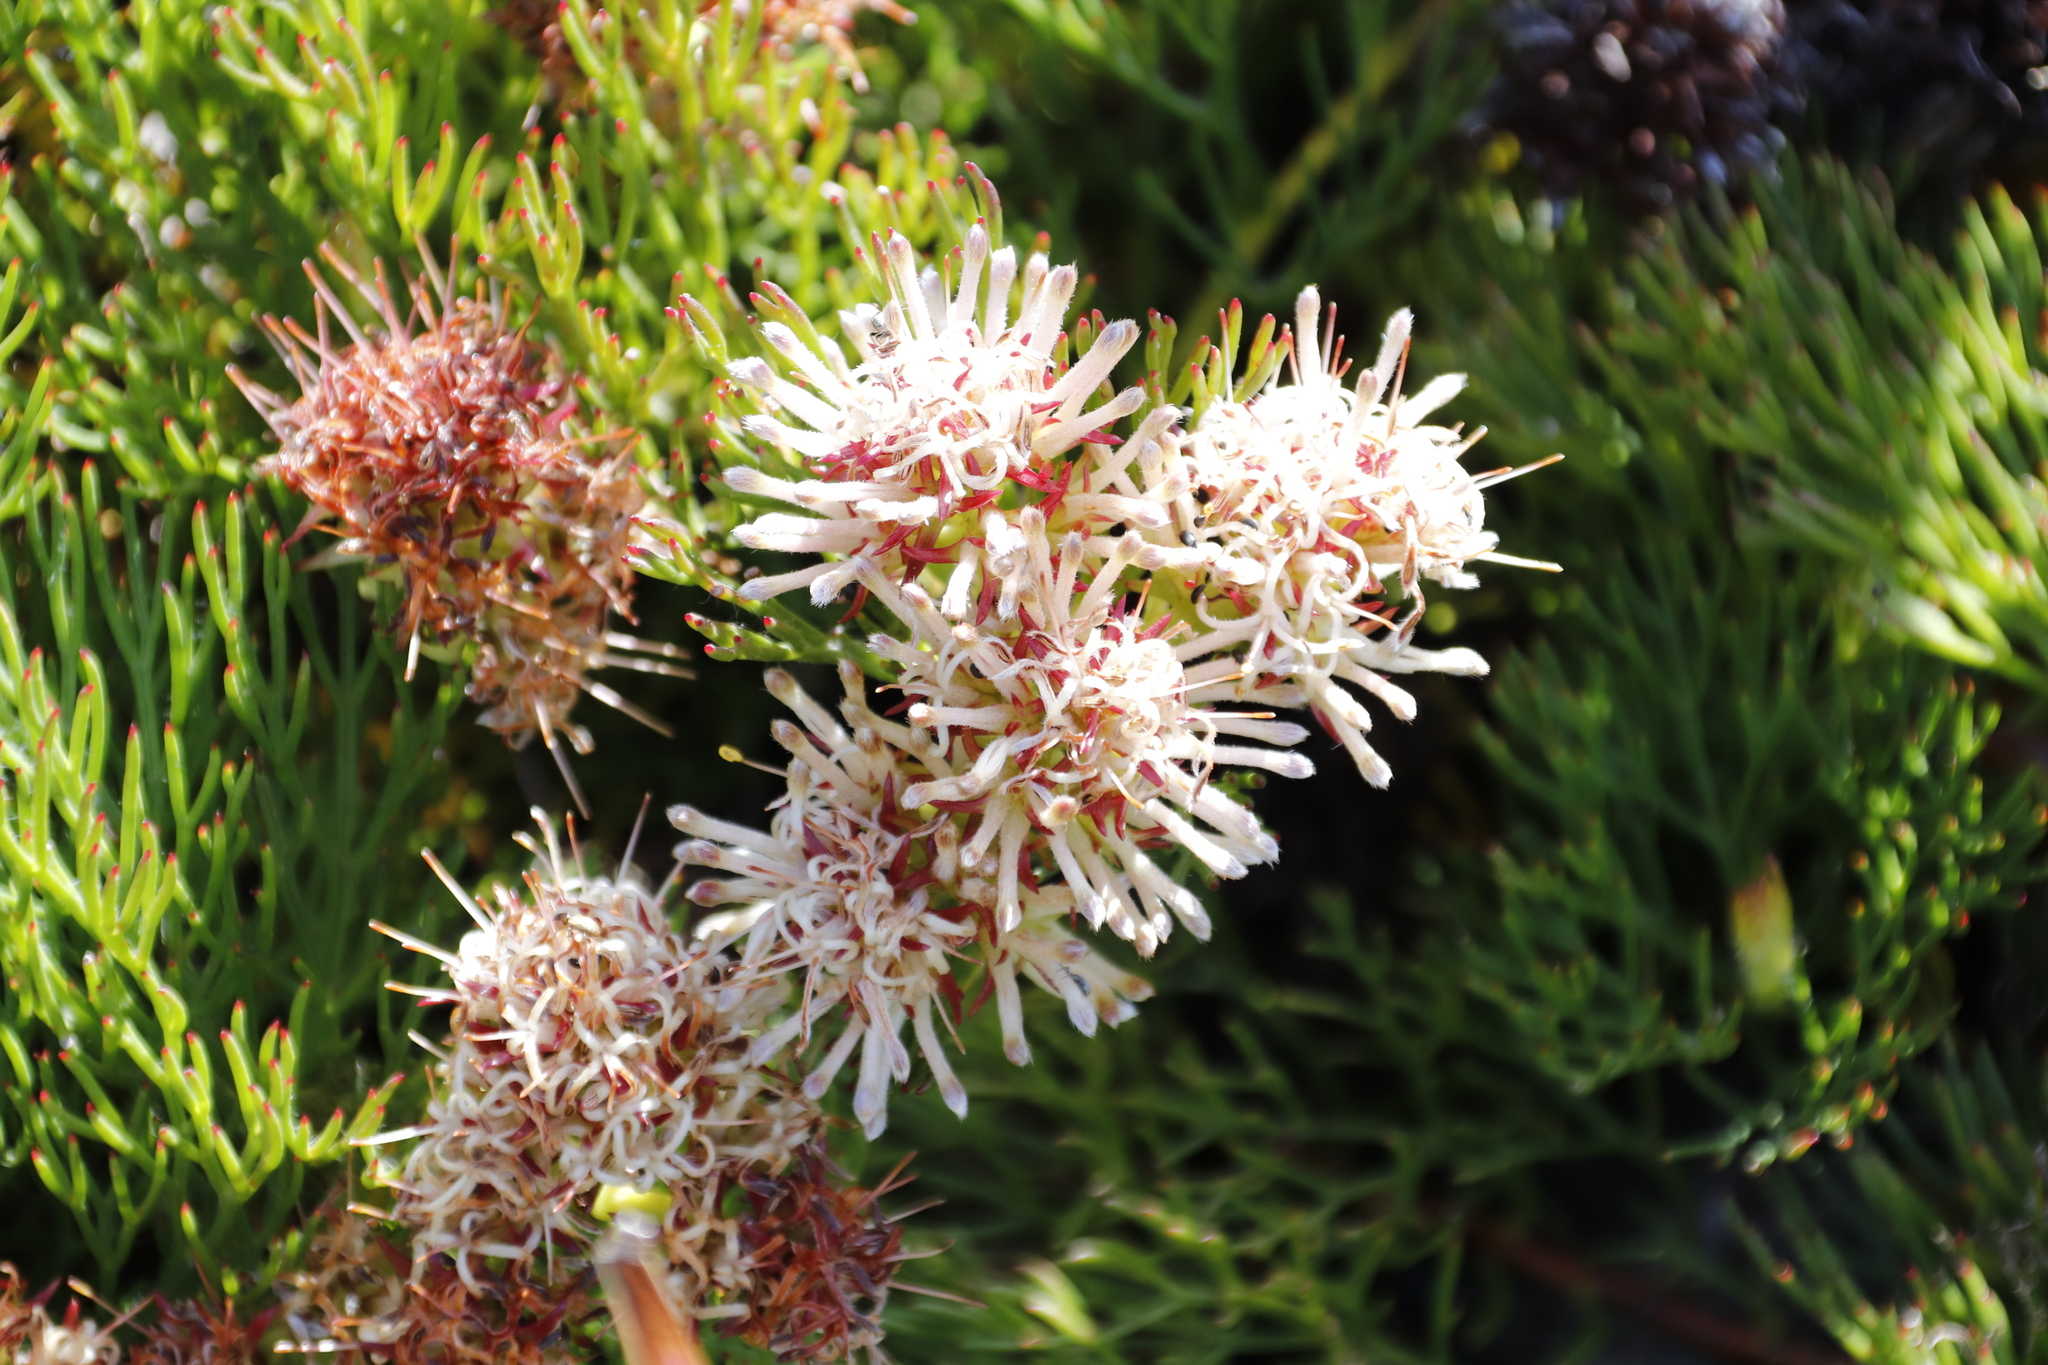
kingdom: Plantae
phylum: Tracheophyta
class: Magnoliopsida
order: Proteales
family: Proteaceae
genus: Serruria
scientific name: Serruria collina
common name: Lost spiderhead
